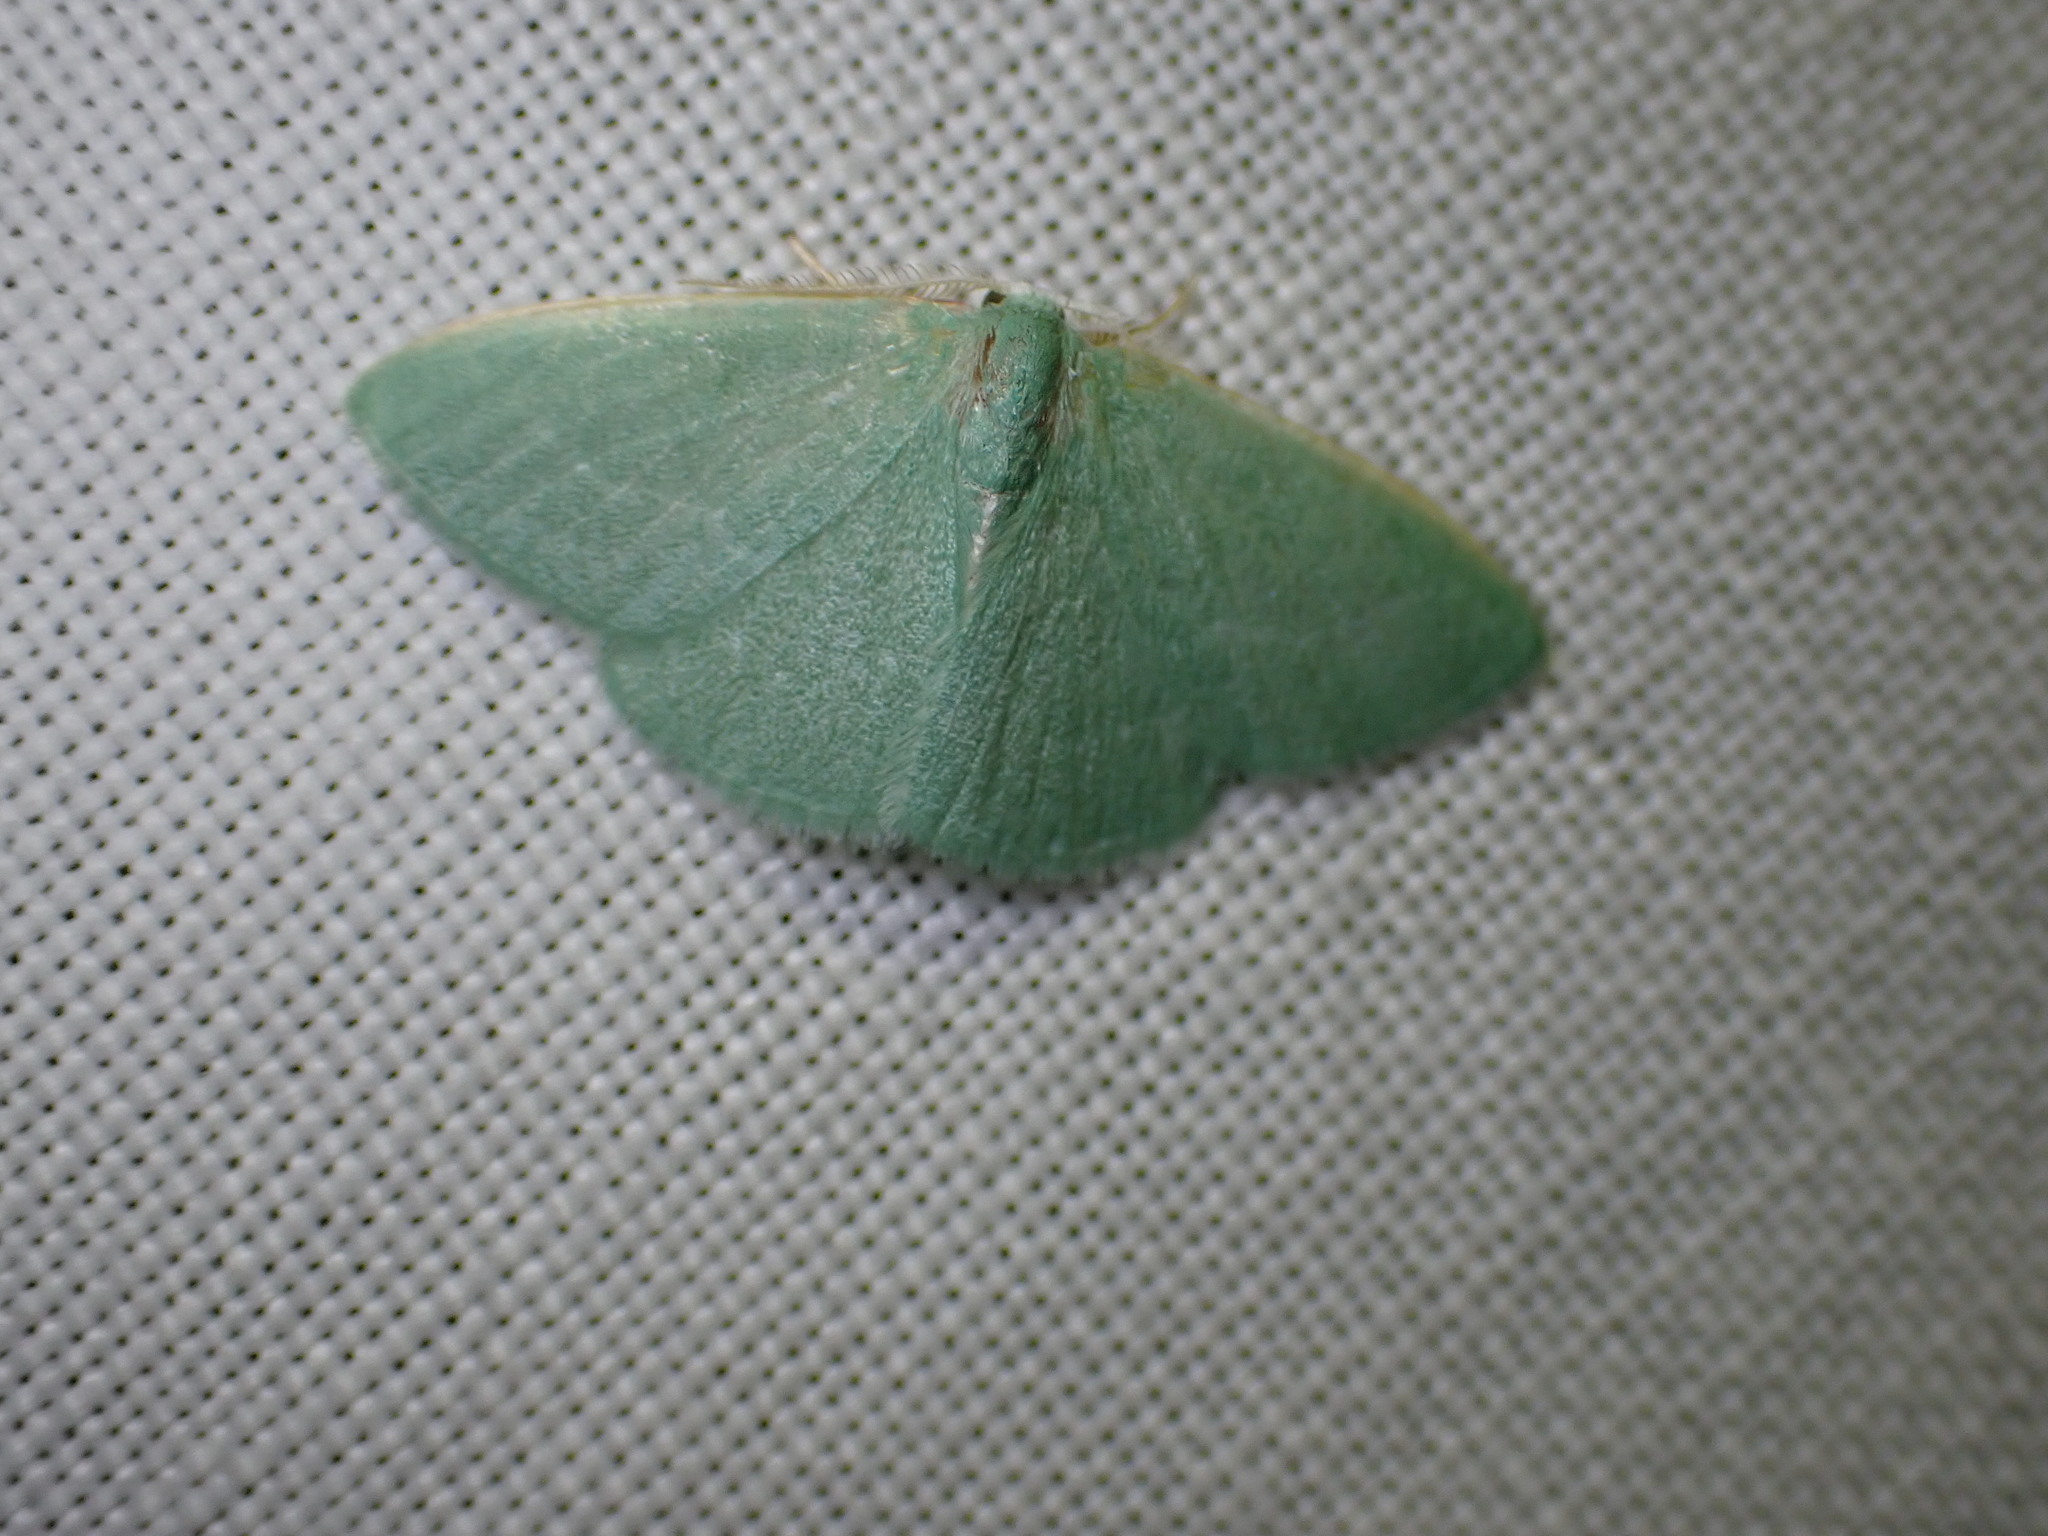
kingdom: Animalia
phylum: Arthropoda
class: Insecta
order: Lepidoptera
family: Geometridae
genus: Xenochlorodes
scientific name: Xenochlorodes olympiaria
